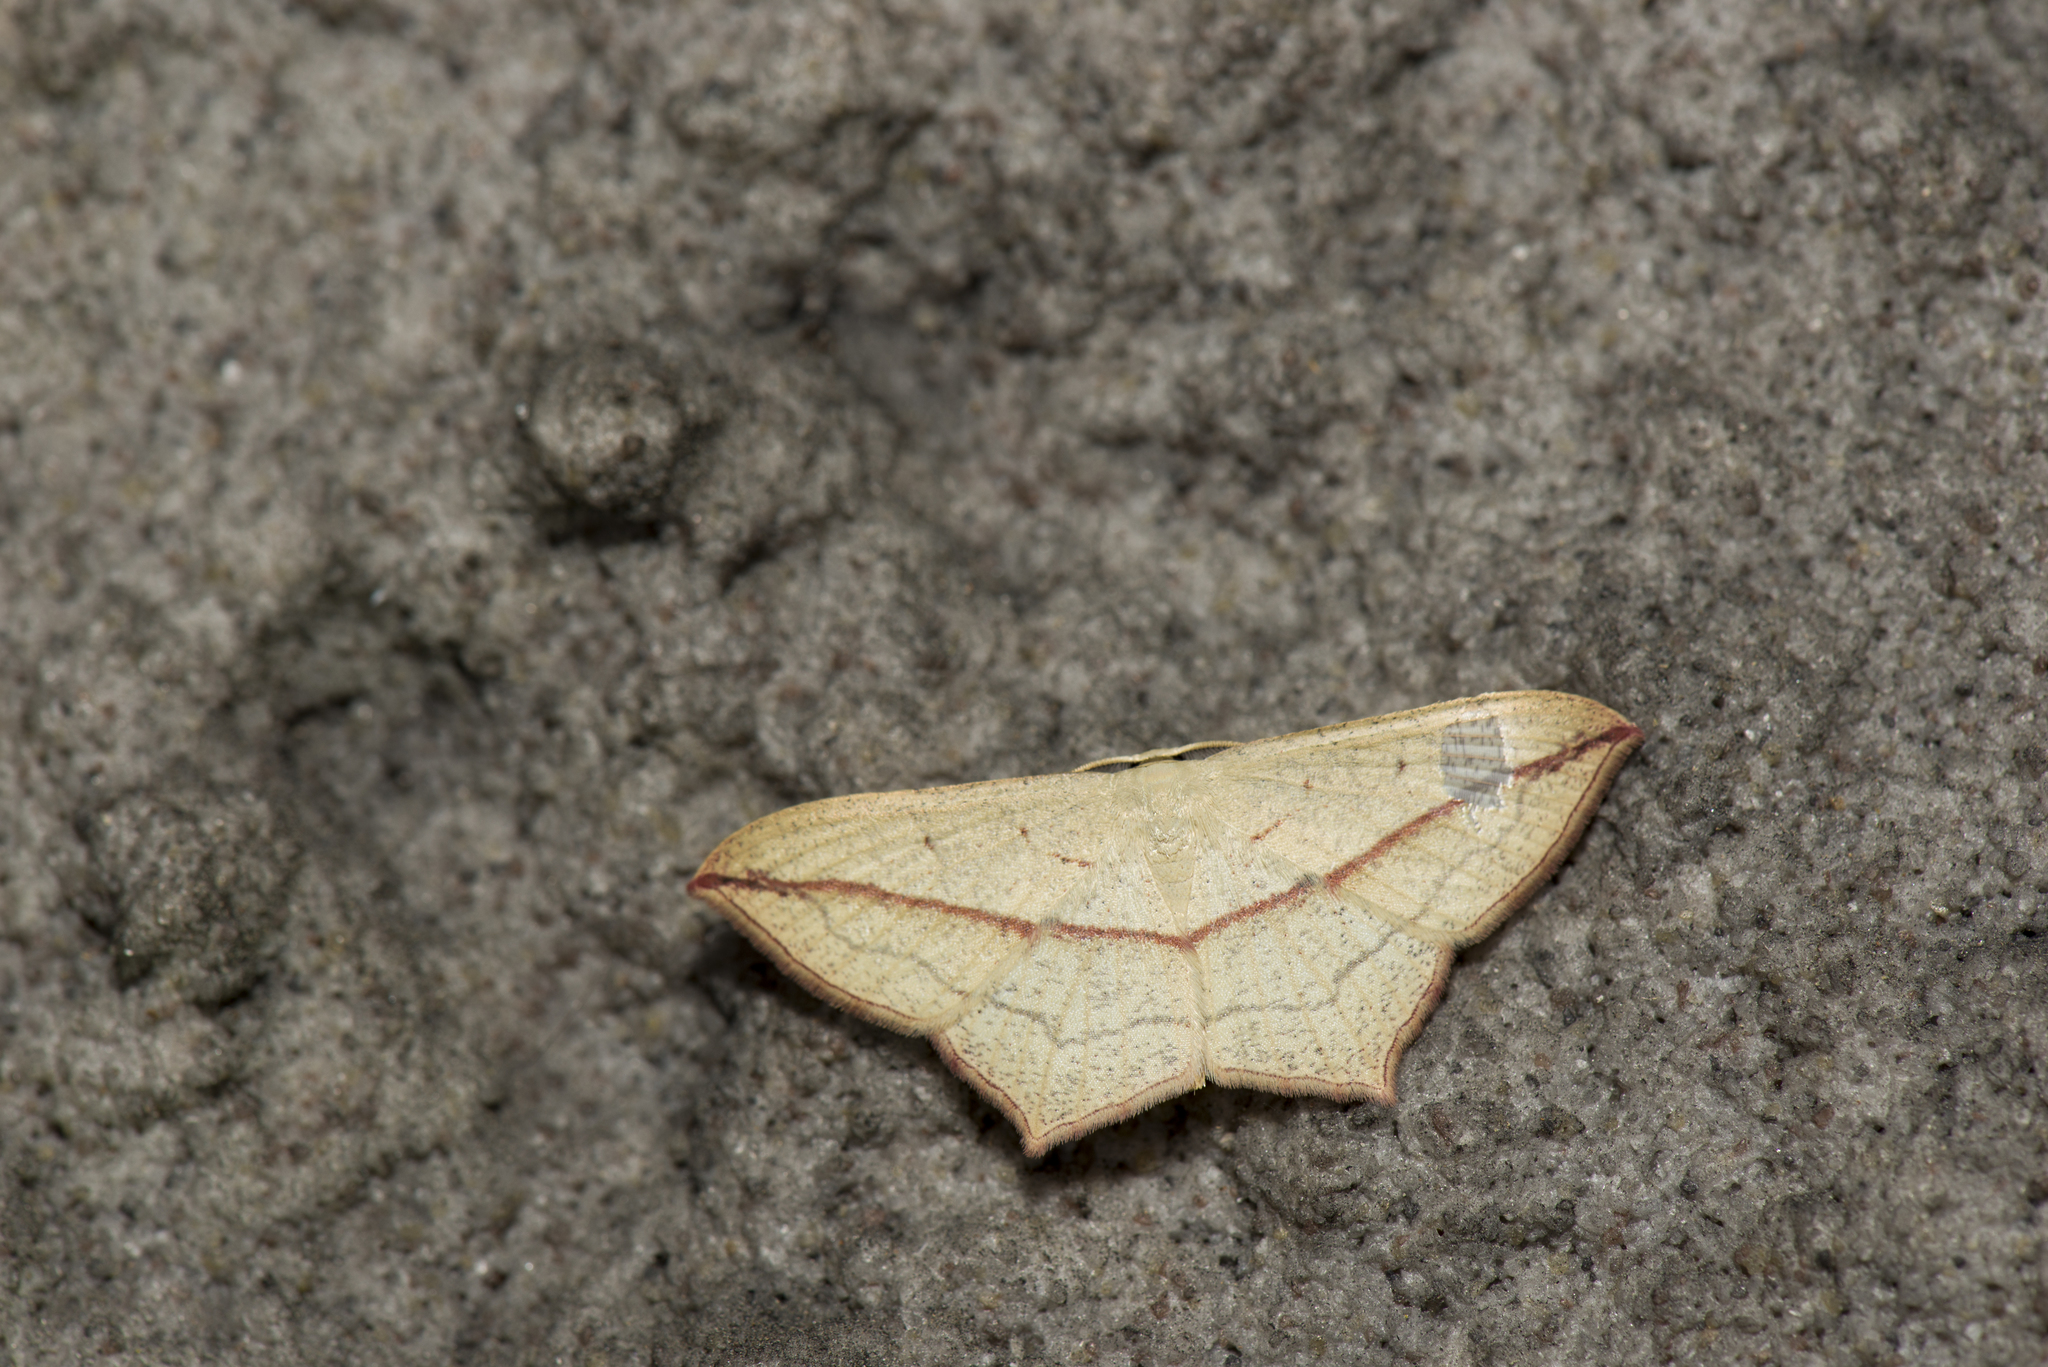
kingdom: Animalia
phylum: Arthropoda
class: Insecta
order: Lepidoptera
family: Geometridae
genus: Timandra
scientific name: Timandra synthaca
